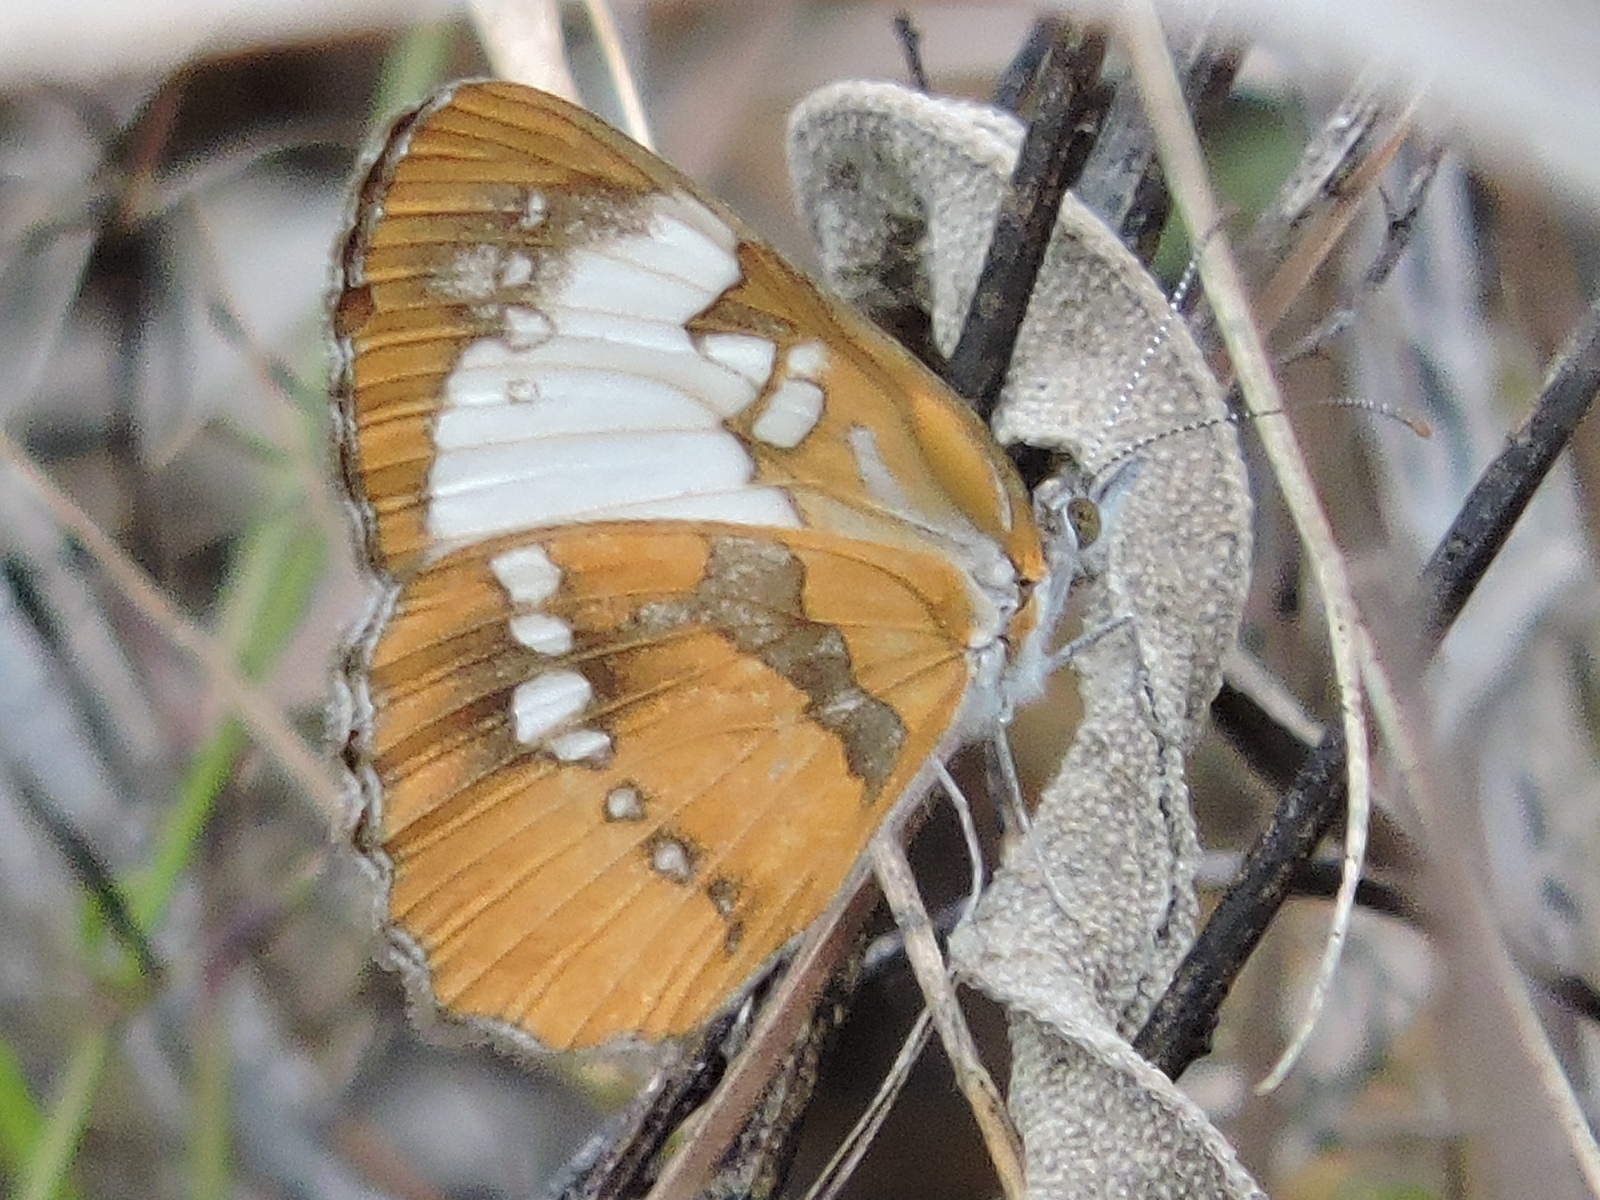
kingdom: Animalia
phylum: Arthropoda
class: Insecta
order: Lepidoptera
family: Nymphalidae
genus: Mestra
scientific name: Mestra amymone
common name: Common mestra
